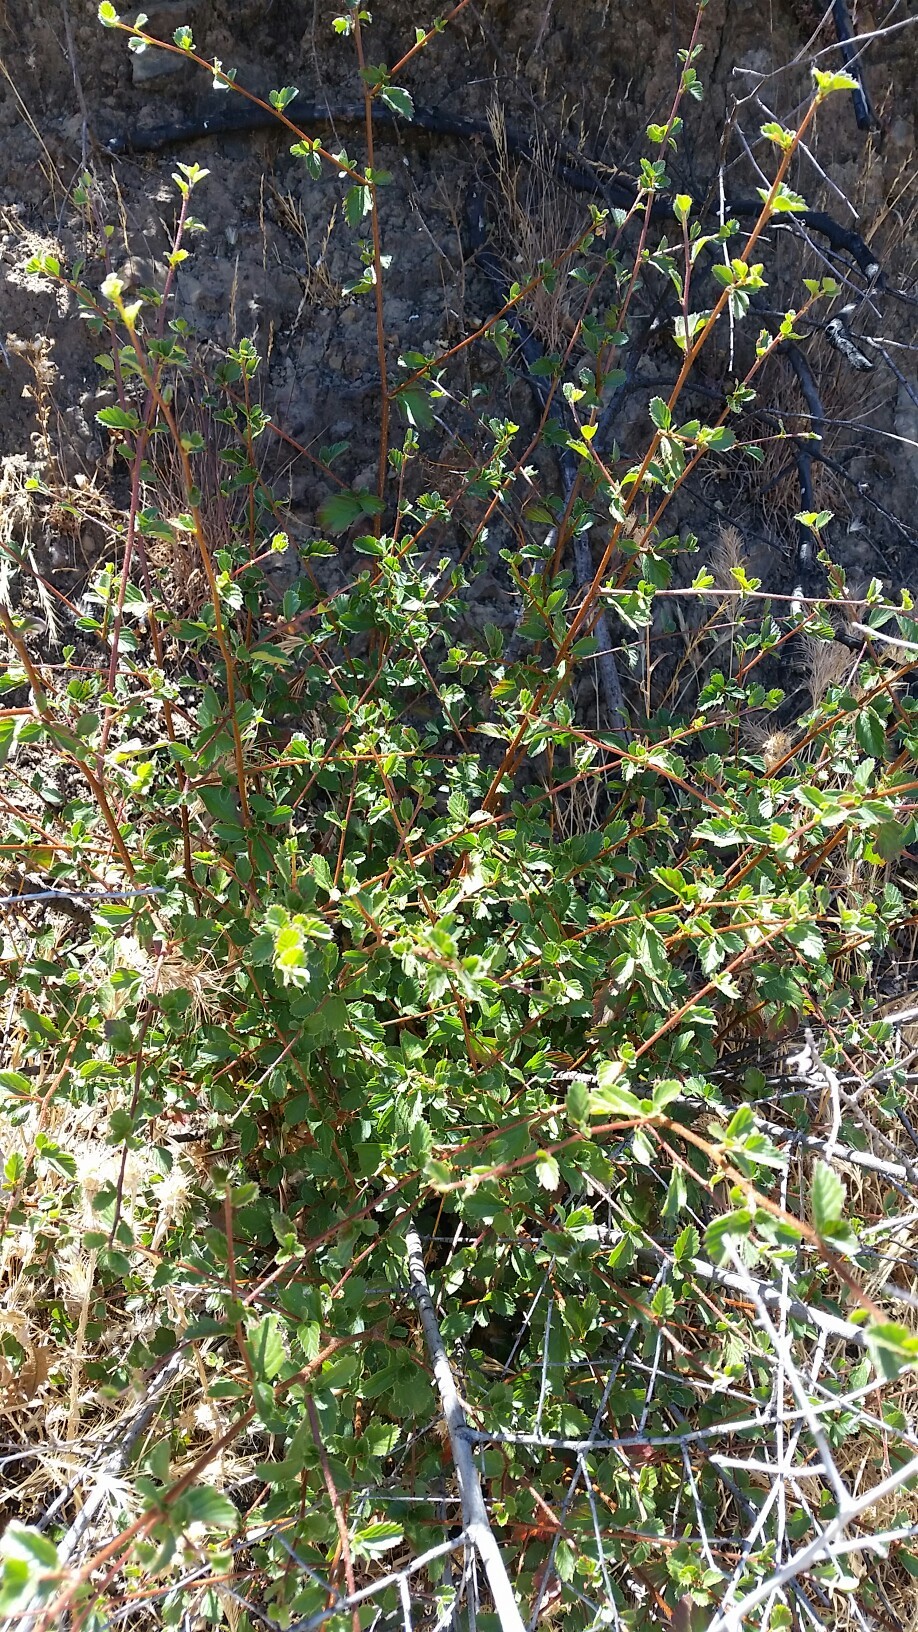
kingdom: Plantae
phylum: Tracheophyta
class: Magnoliopsida
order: Rosales
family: Rosaceae
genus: Cercocarpus
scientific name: Cercocarpus betuloides
